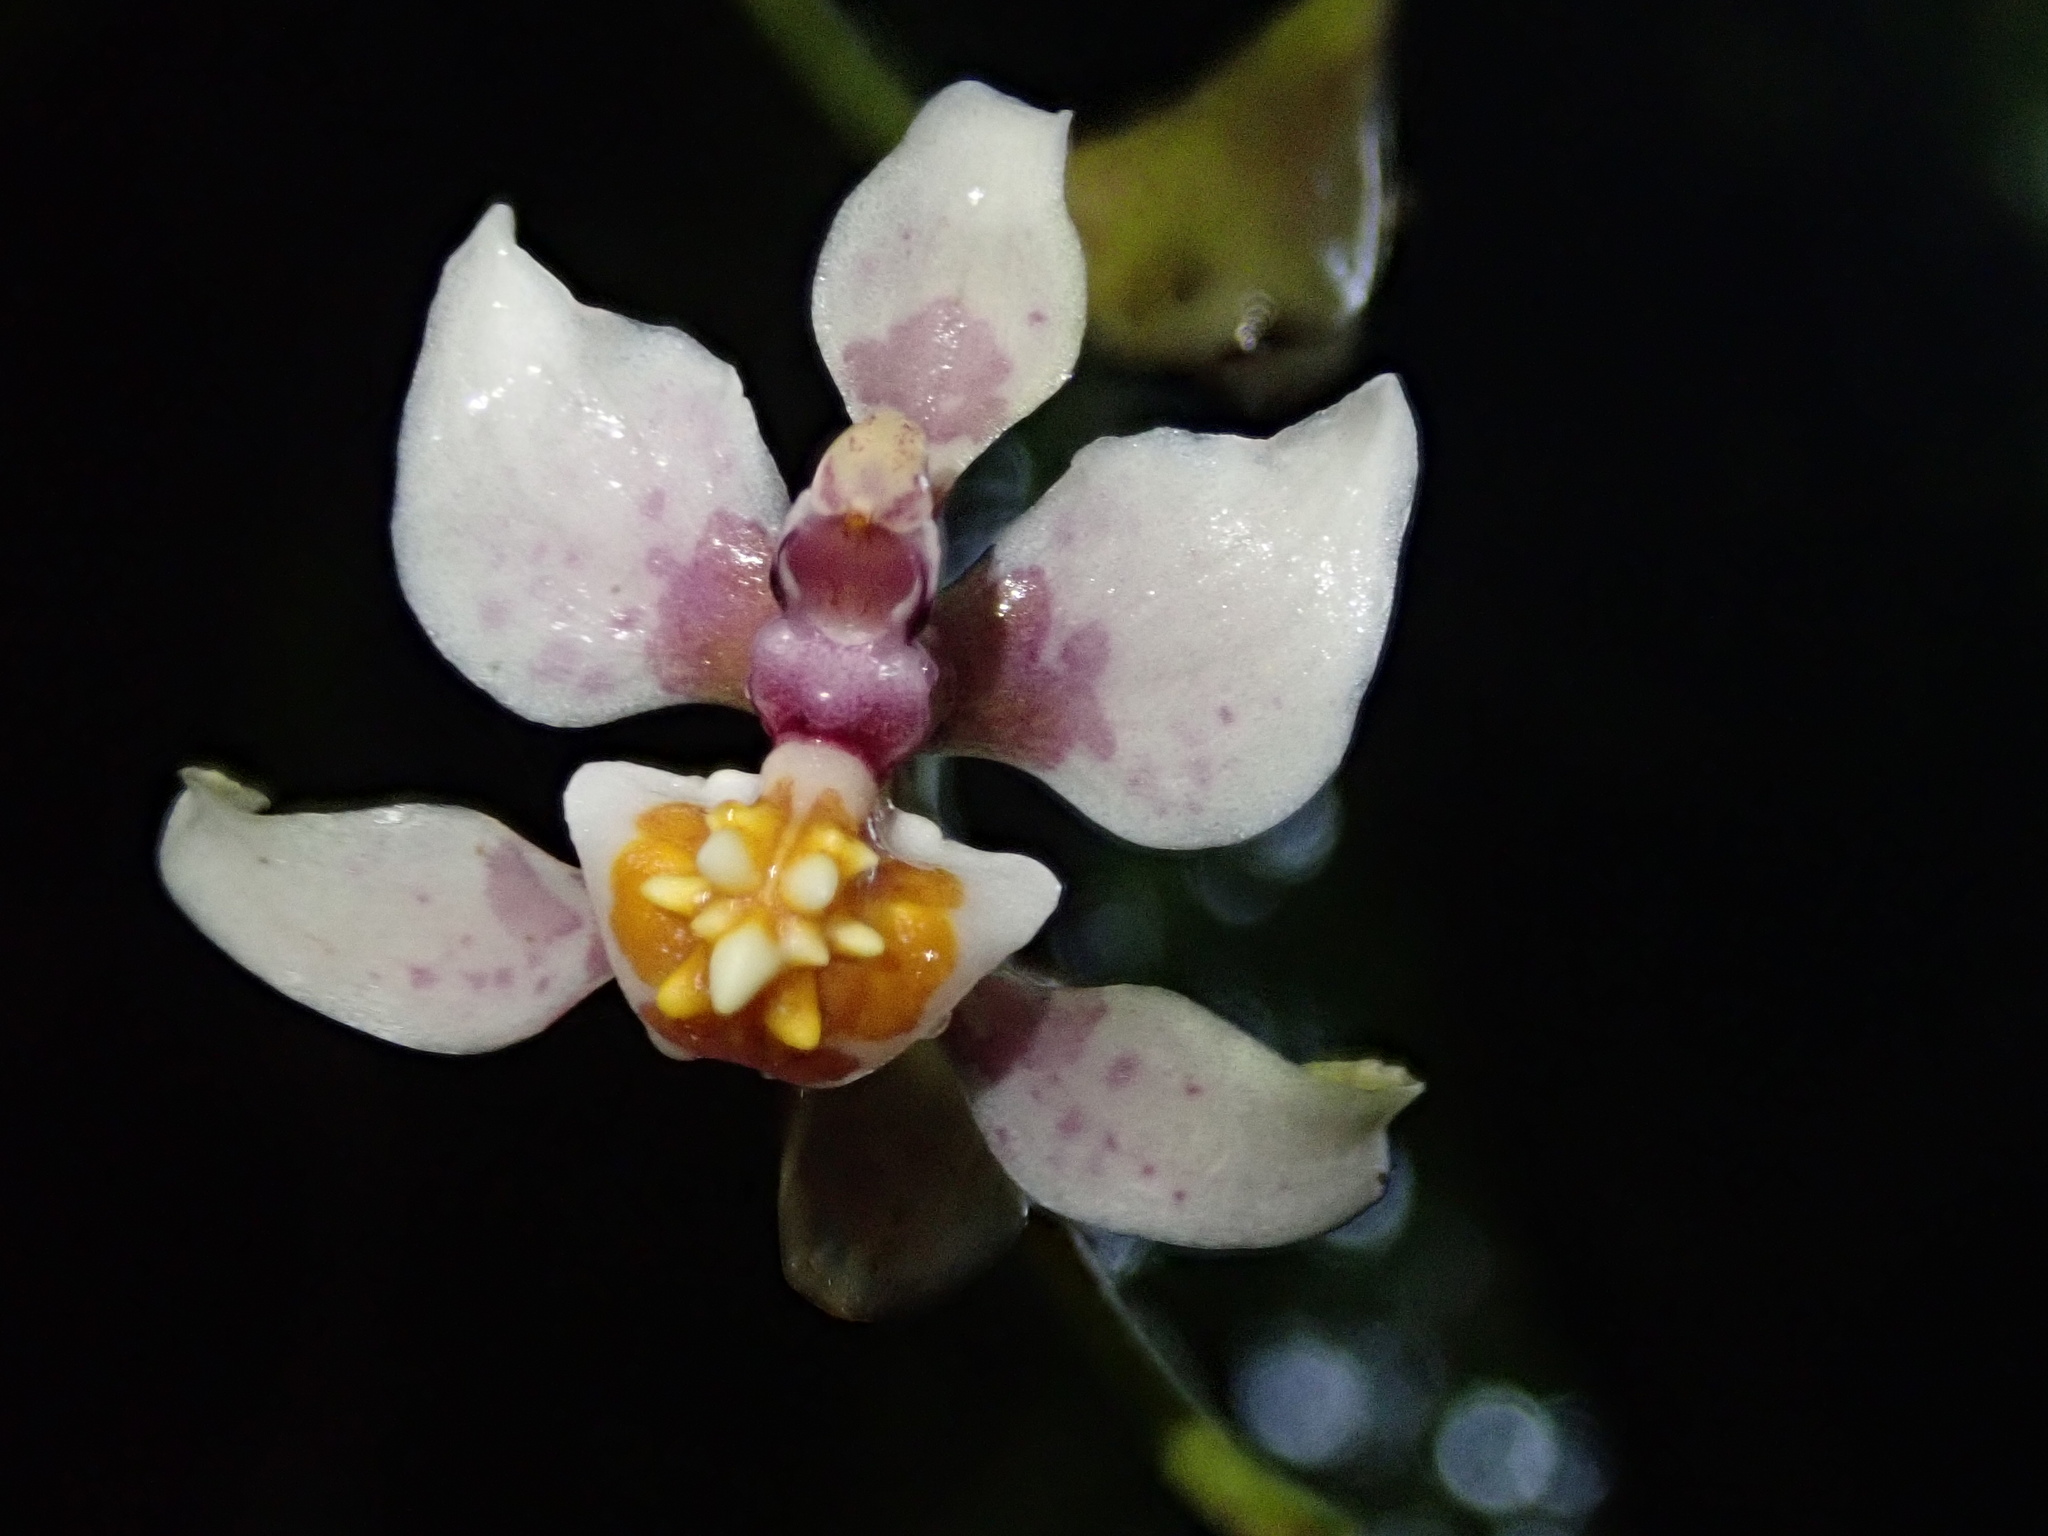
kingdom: Plantae
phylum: Tracheophyta
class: Liliopsida
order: Asparagales
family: Orchidaceae
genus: Cyrtochilum
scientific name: Cyrtochilum midas
